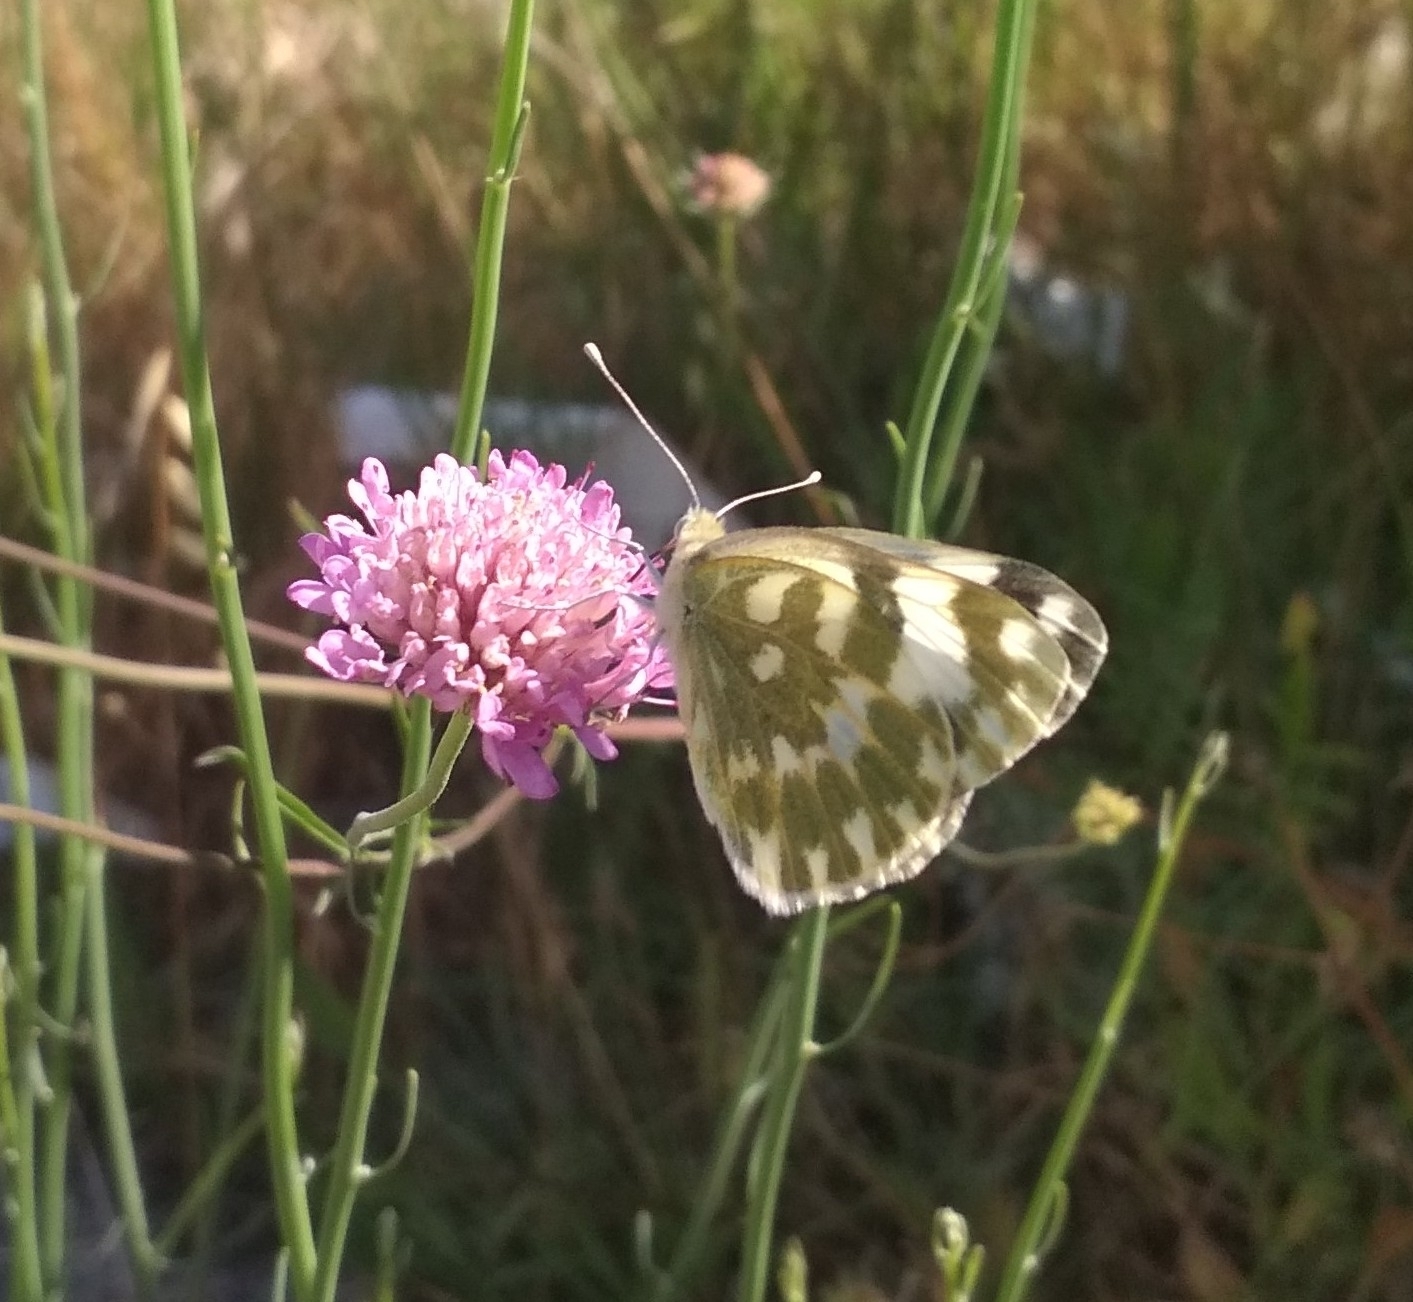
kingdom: Animalia
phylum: Arthropoda
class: Insecta
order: Lepidoptera
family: Pieridae
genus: Pontia
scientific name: Pontia edusa
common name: Eastern bath white
